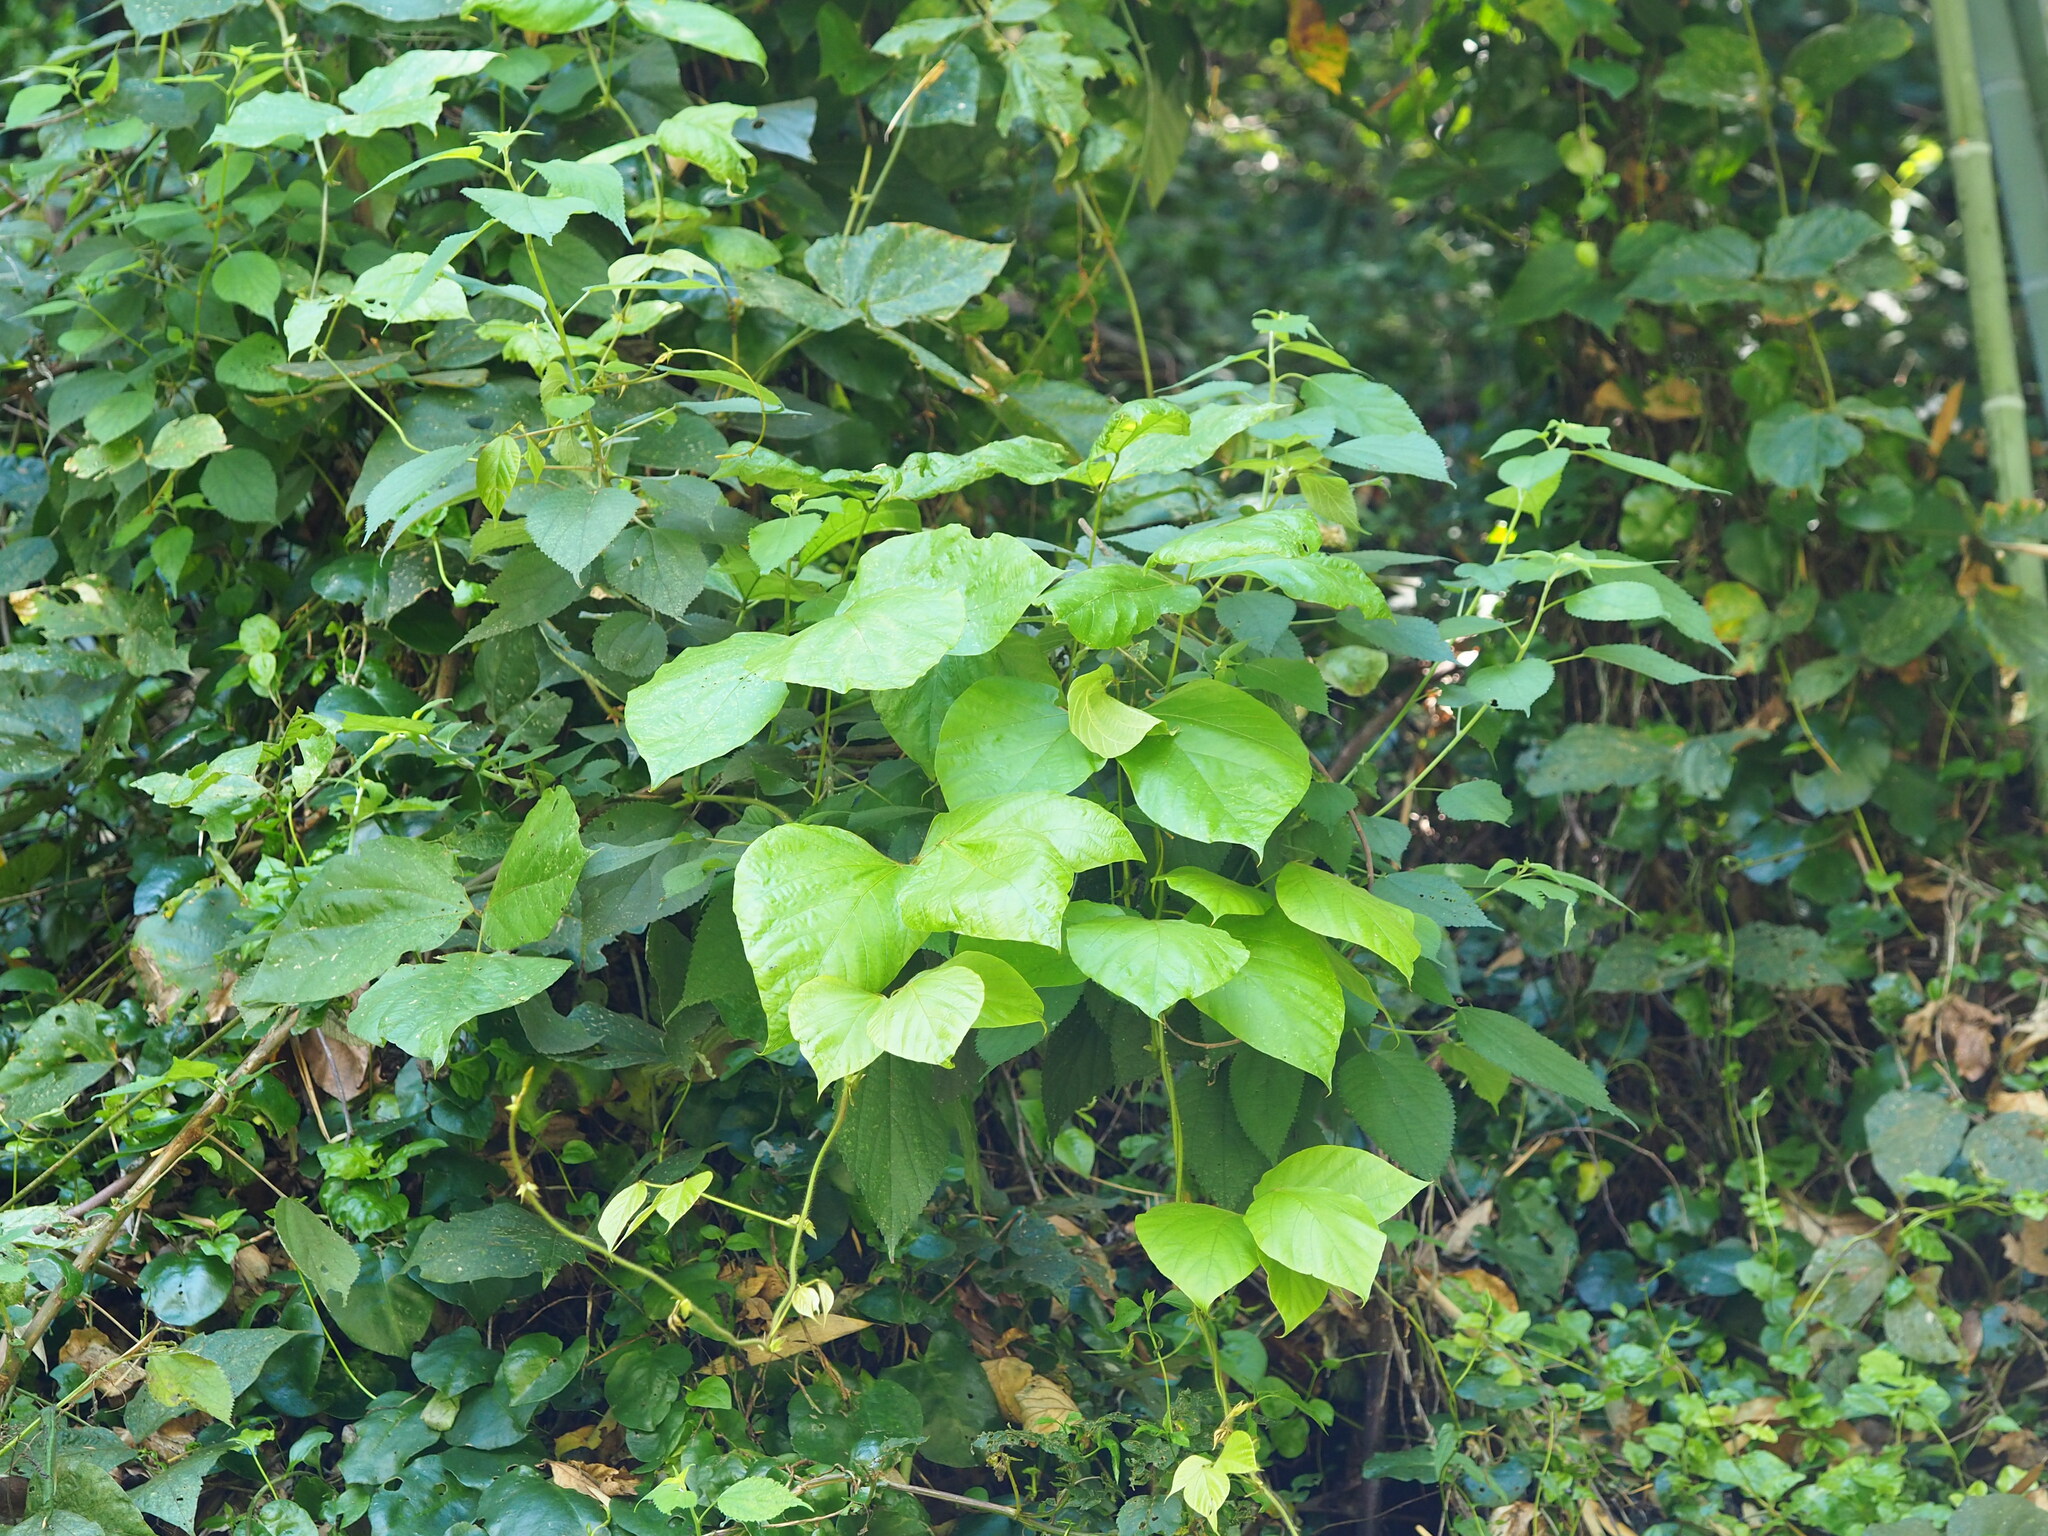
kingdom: Plantae
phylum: Tracheophyta
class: Magnoliopsida
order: Fabales
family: Fabaceae
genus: Pueraria
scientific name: Pueraria montana
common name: Kudzu
